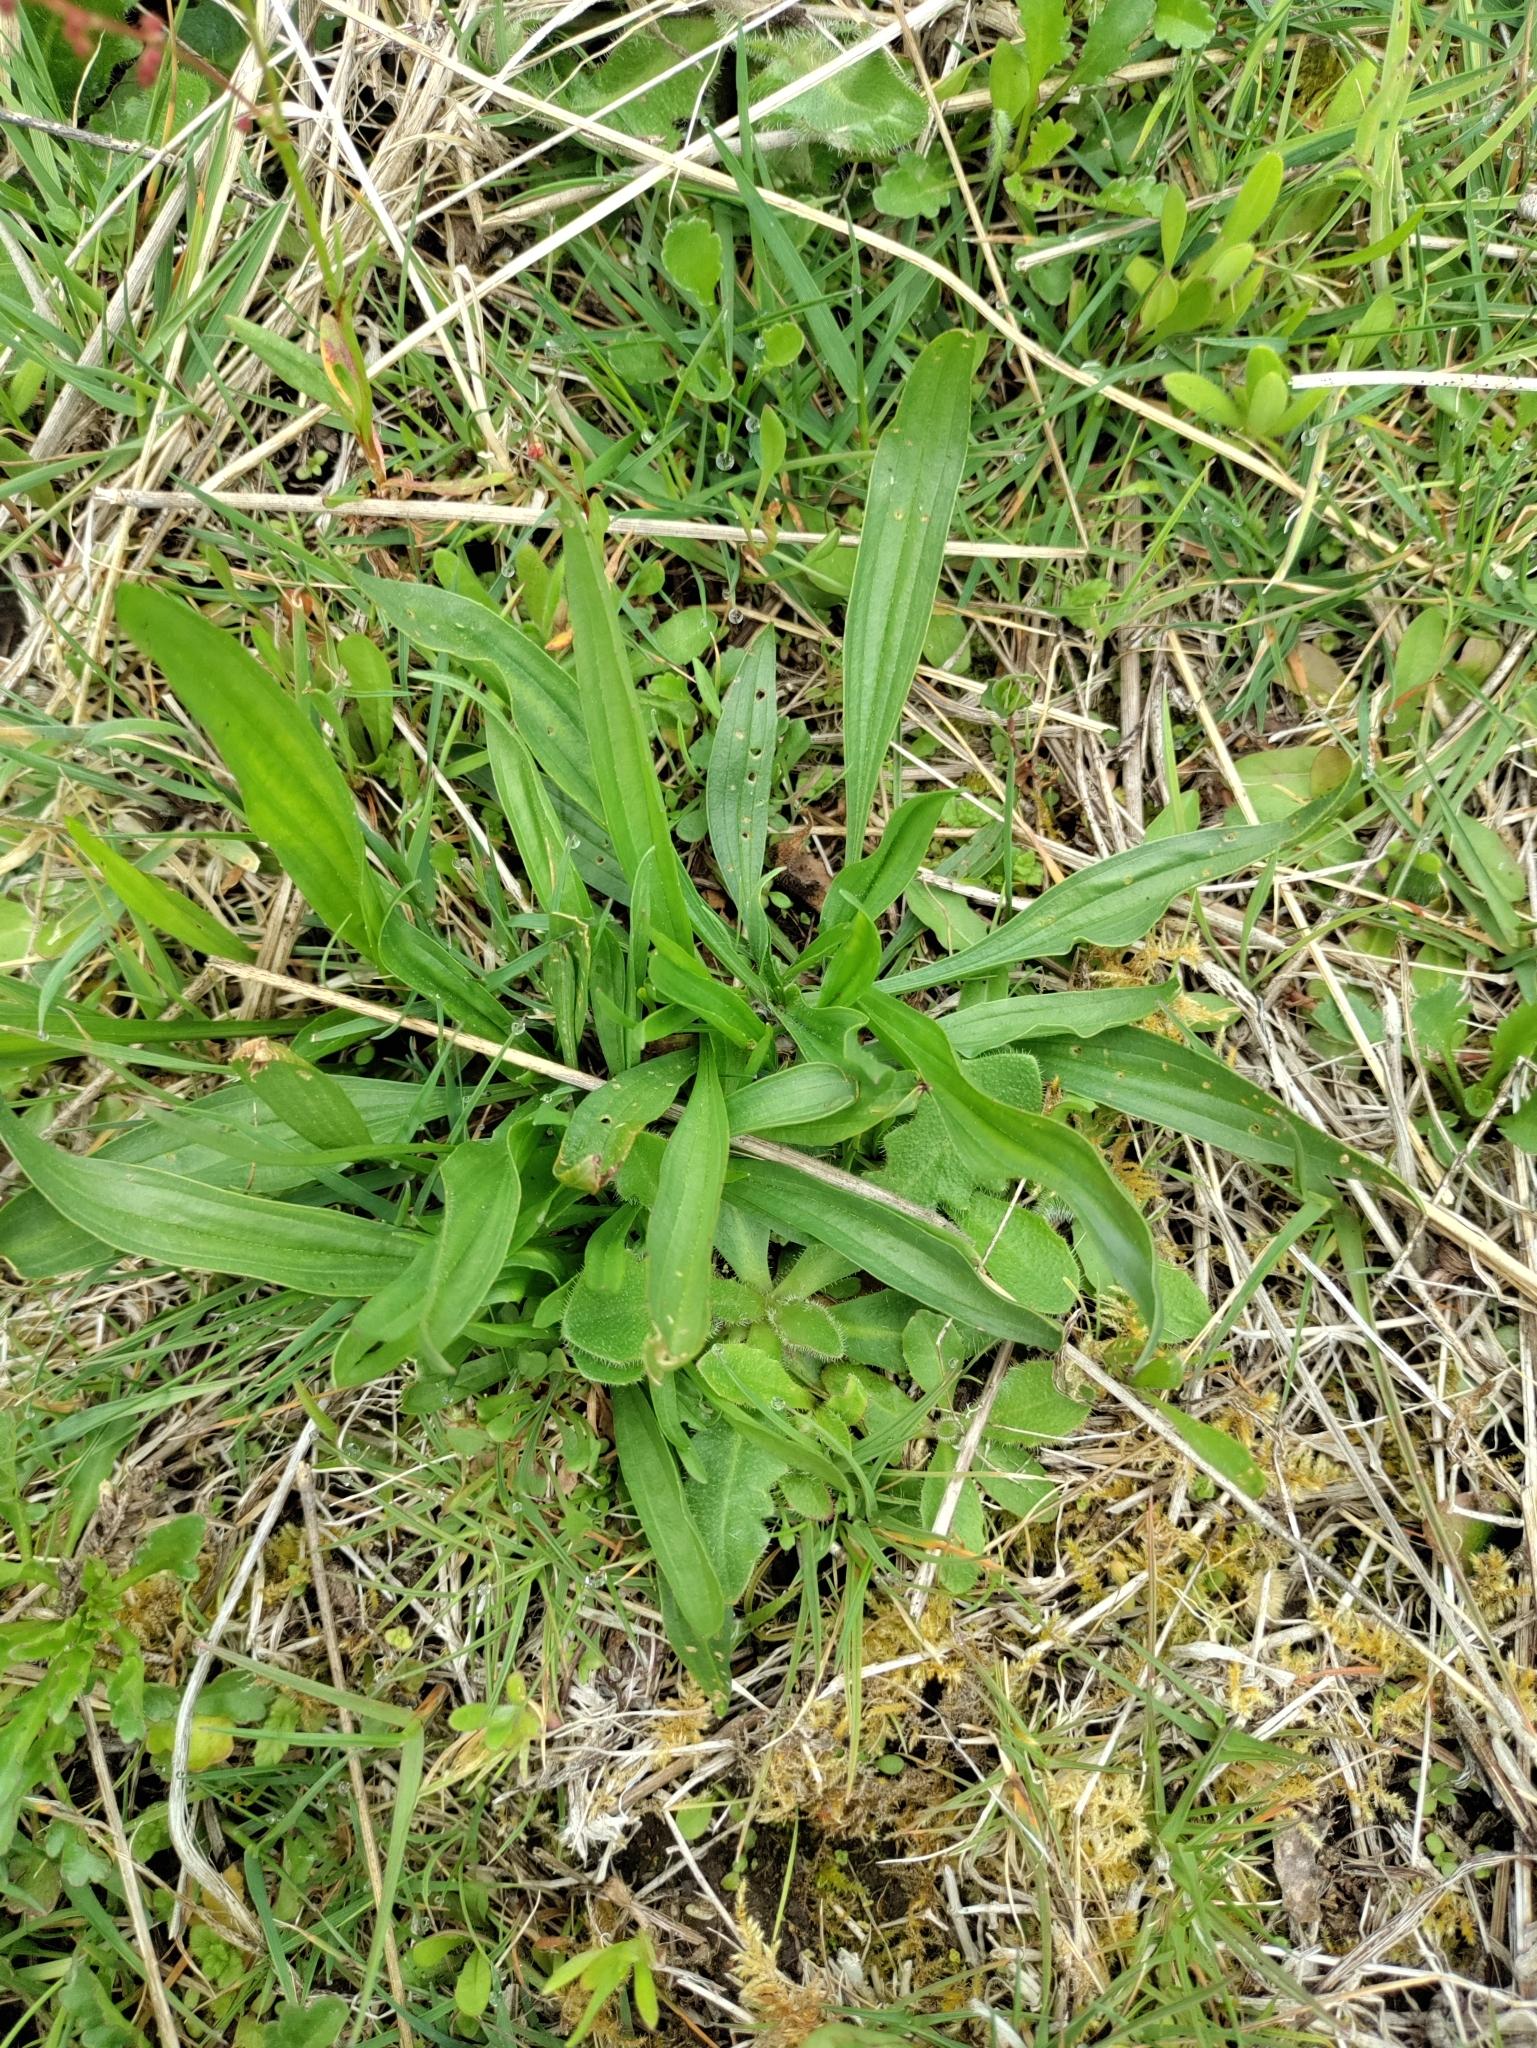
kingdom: Plantae
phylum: Tracheophyta
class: Magnoliopsida
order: Lamiales
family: Plantaginaceae
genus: Plantago
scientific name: Plantago lanceolata
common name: Ribwort plantain
